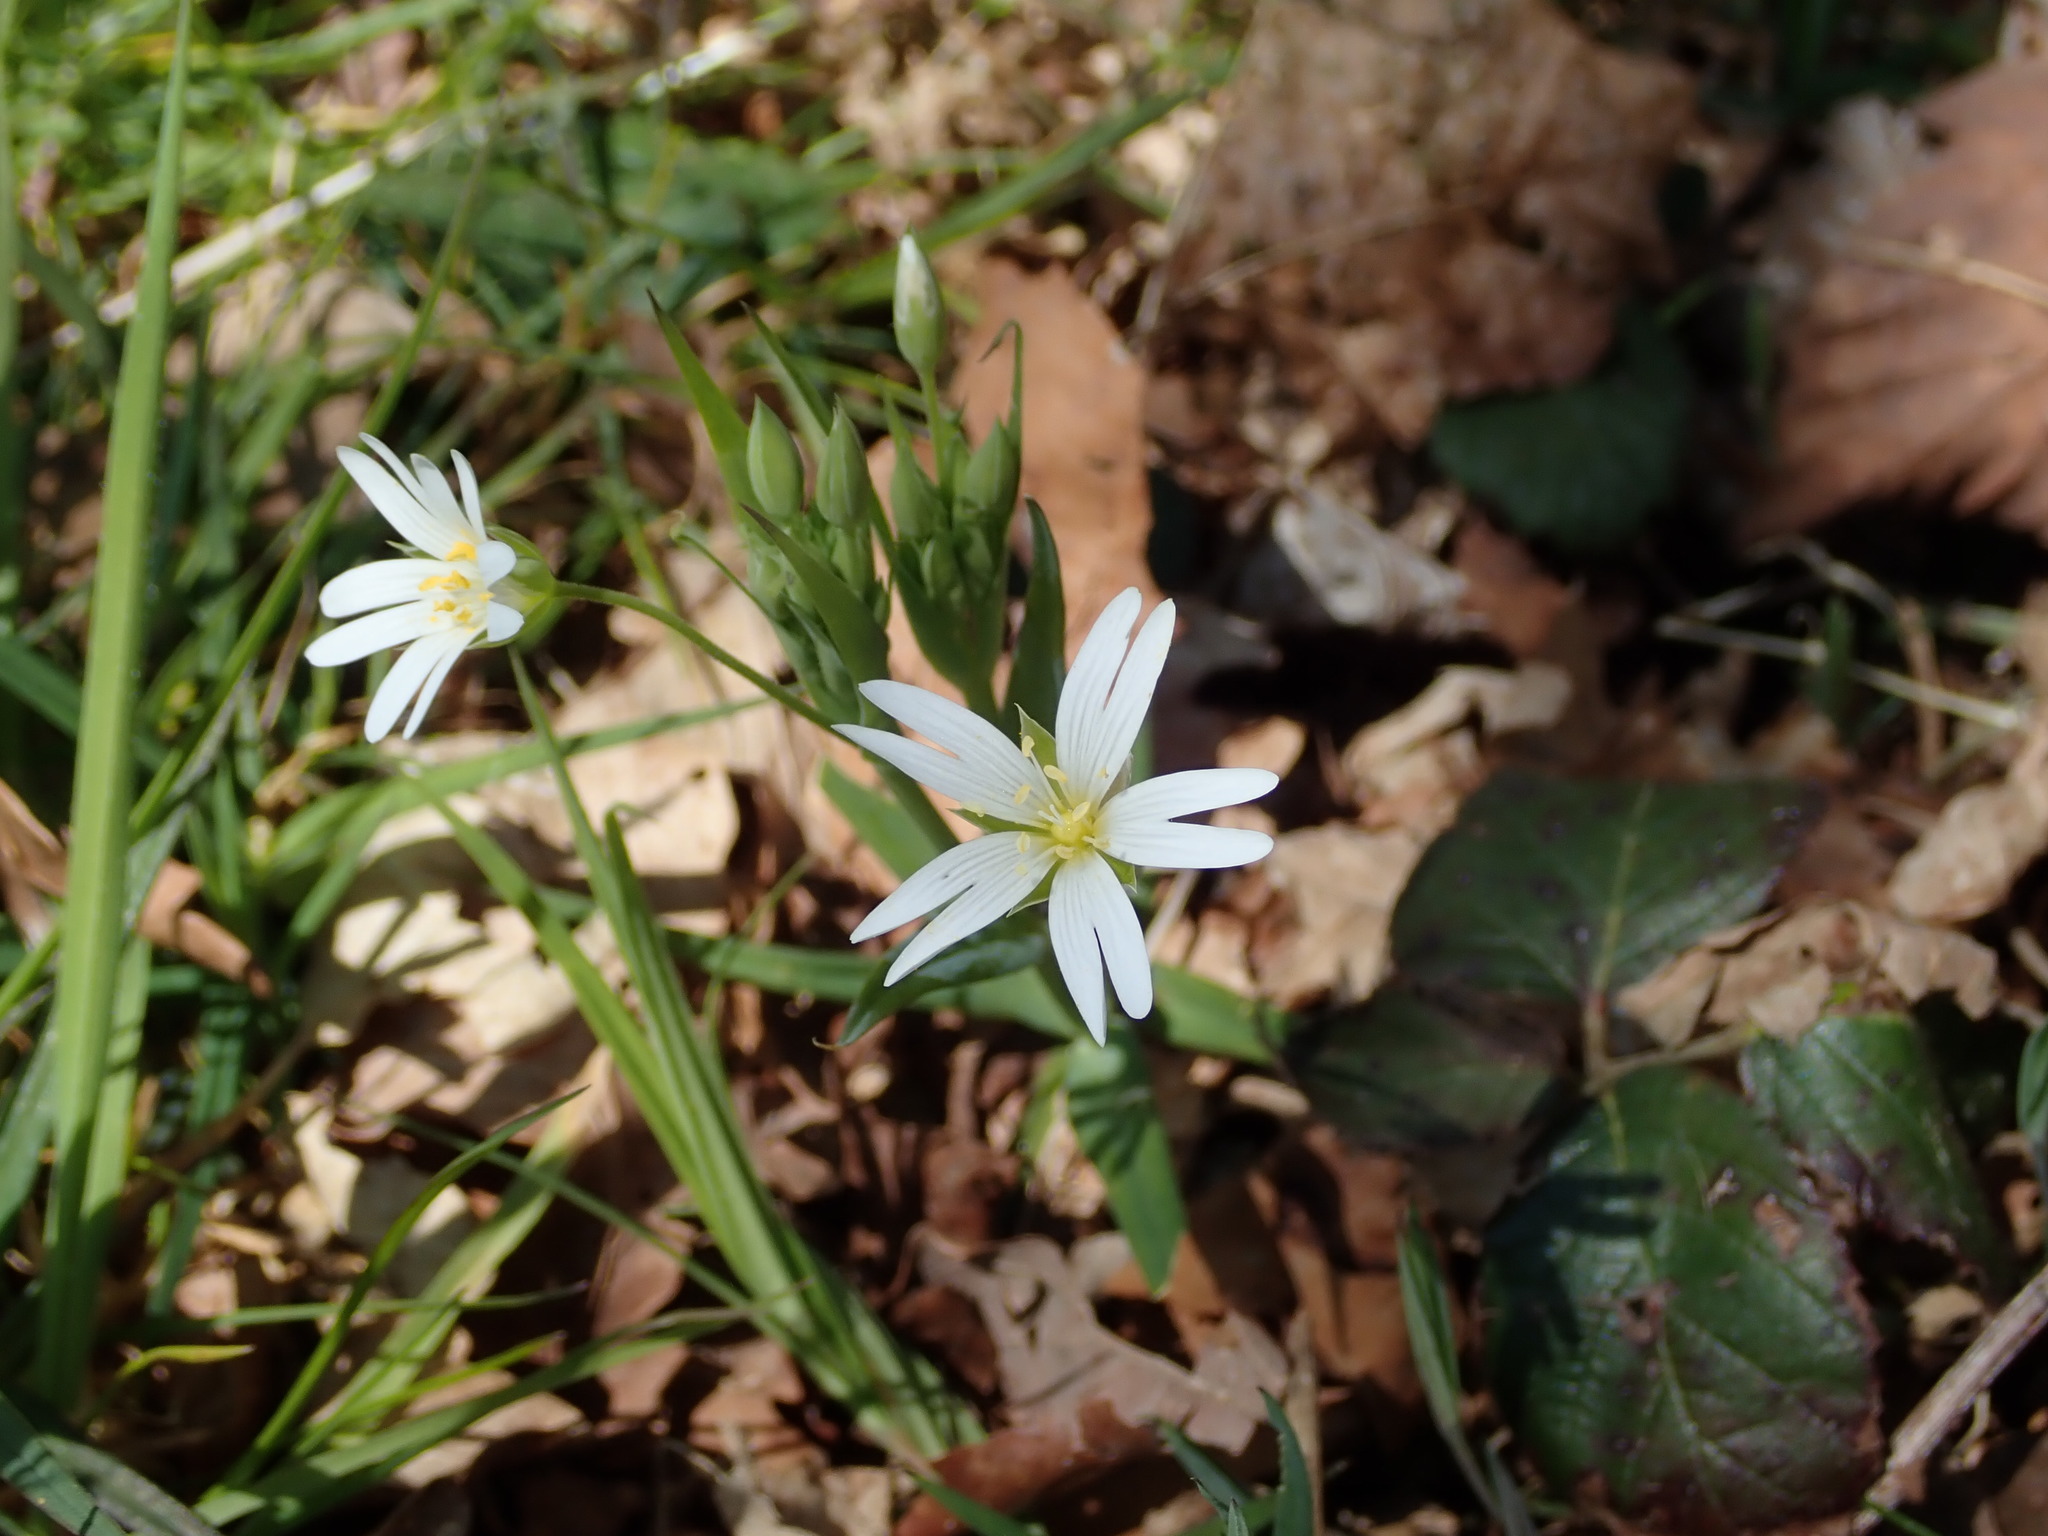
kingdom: Plantae
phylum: Tracheophyta
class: Magnoliopsida
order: Caryophyllales
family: Caryophyllaceae
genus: Rabelera
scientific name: Rabelera holostea
